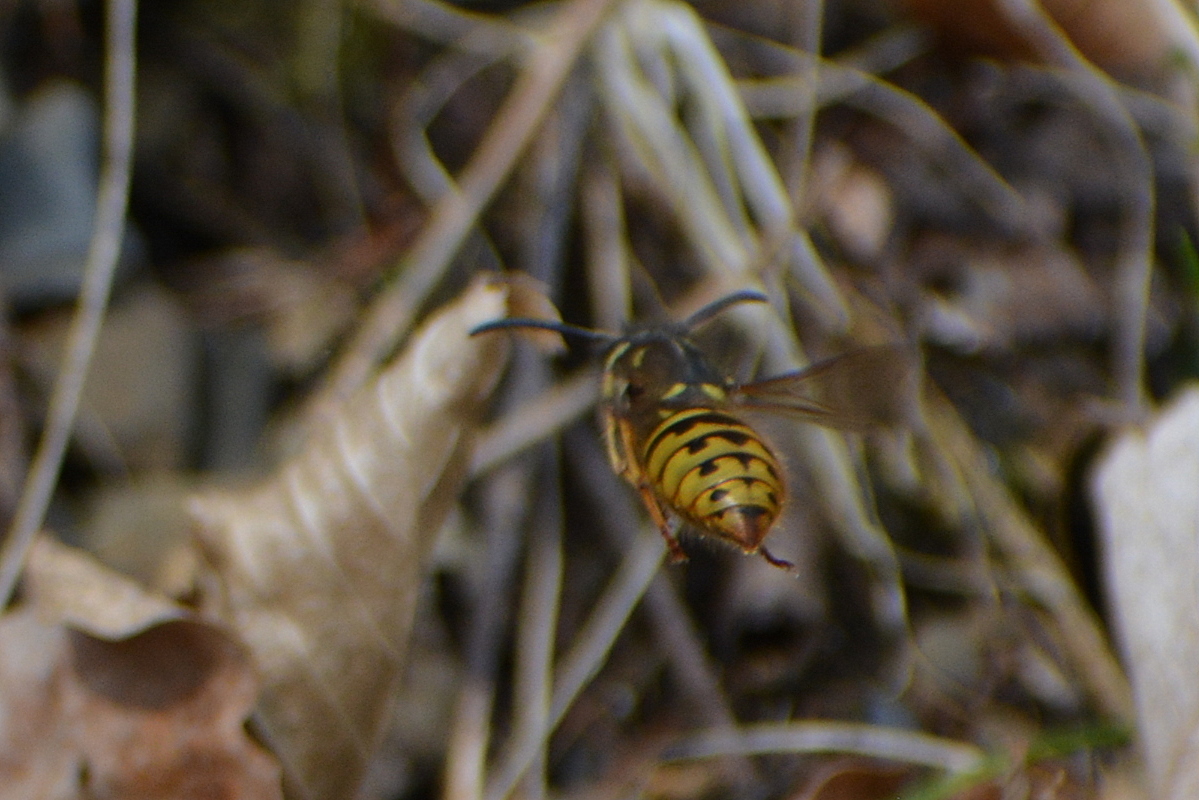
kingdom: Animalia
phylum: Arthropoda
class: Insecta
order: Hymenoptera
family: Vespidae
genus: Vespula
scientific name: Vespula vulgaris
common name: Common wasp
